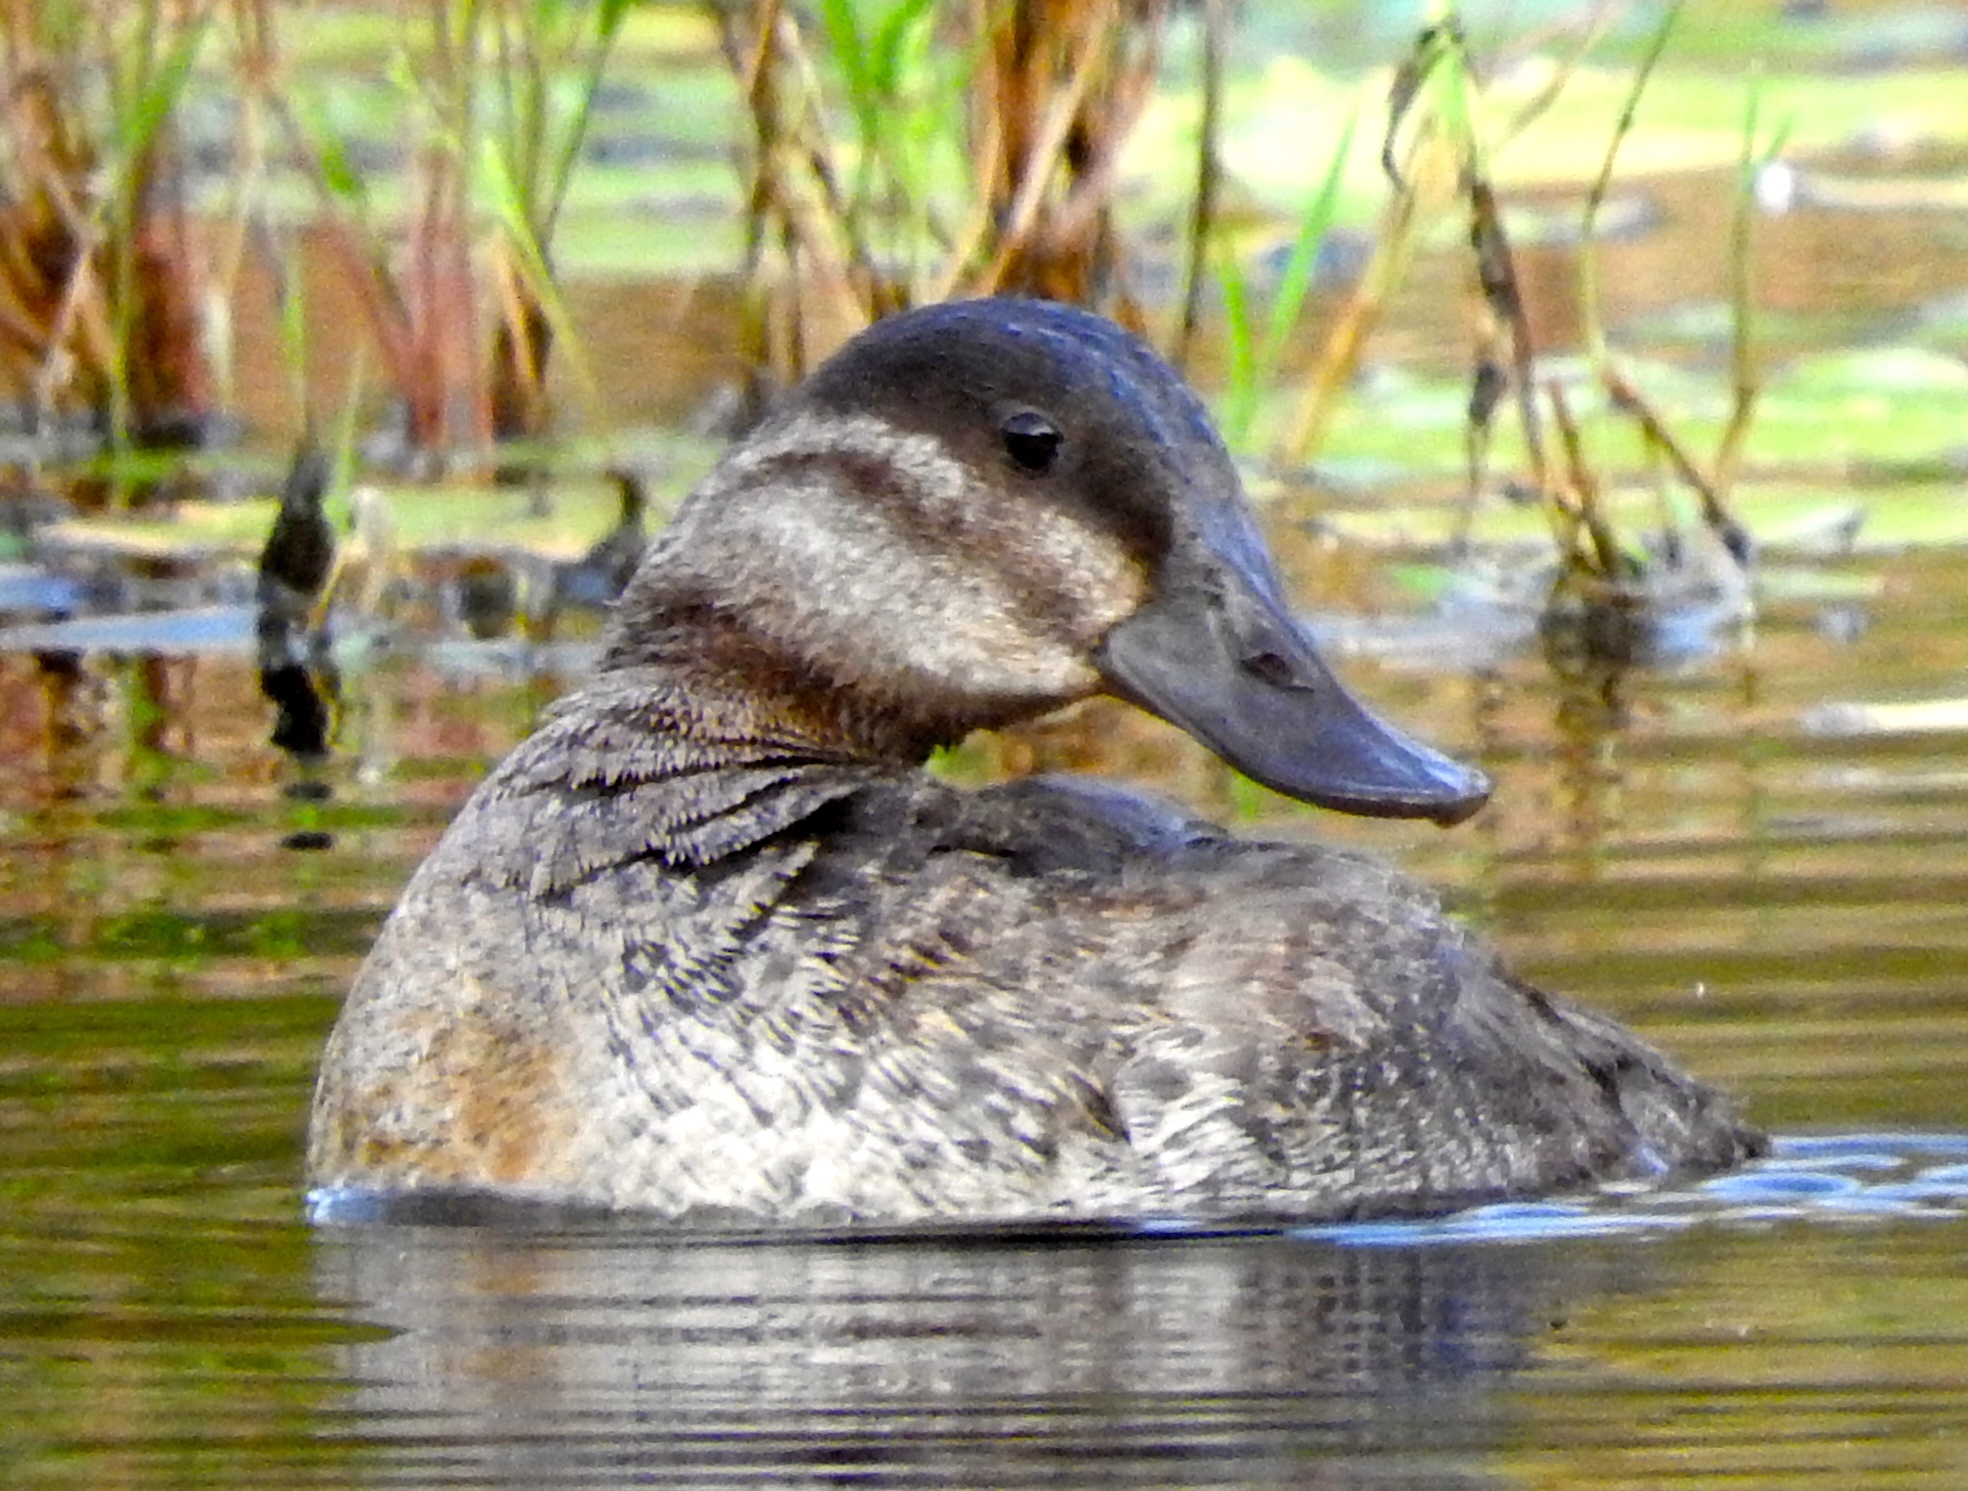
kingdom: Animalia
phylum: Chordata
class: Aves
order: Anseriformes
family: Anatidae
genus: Oxyura
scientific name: Oxyura jamaicensis
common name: Ruddy duck
